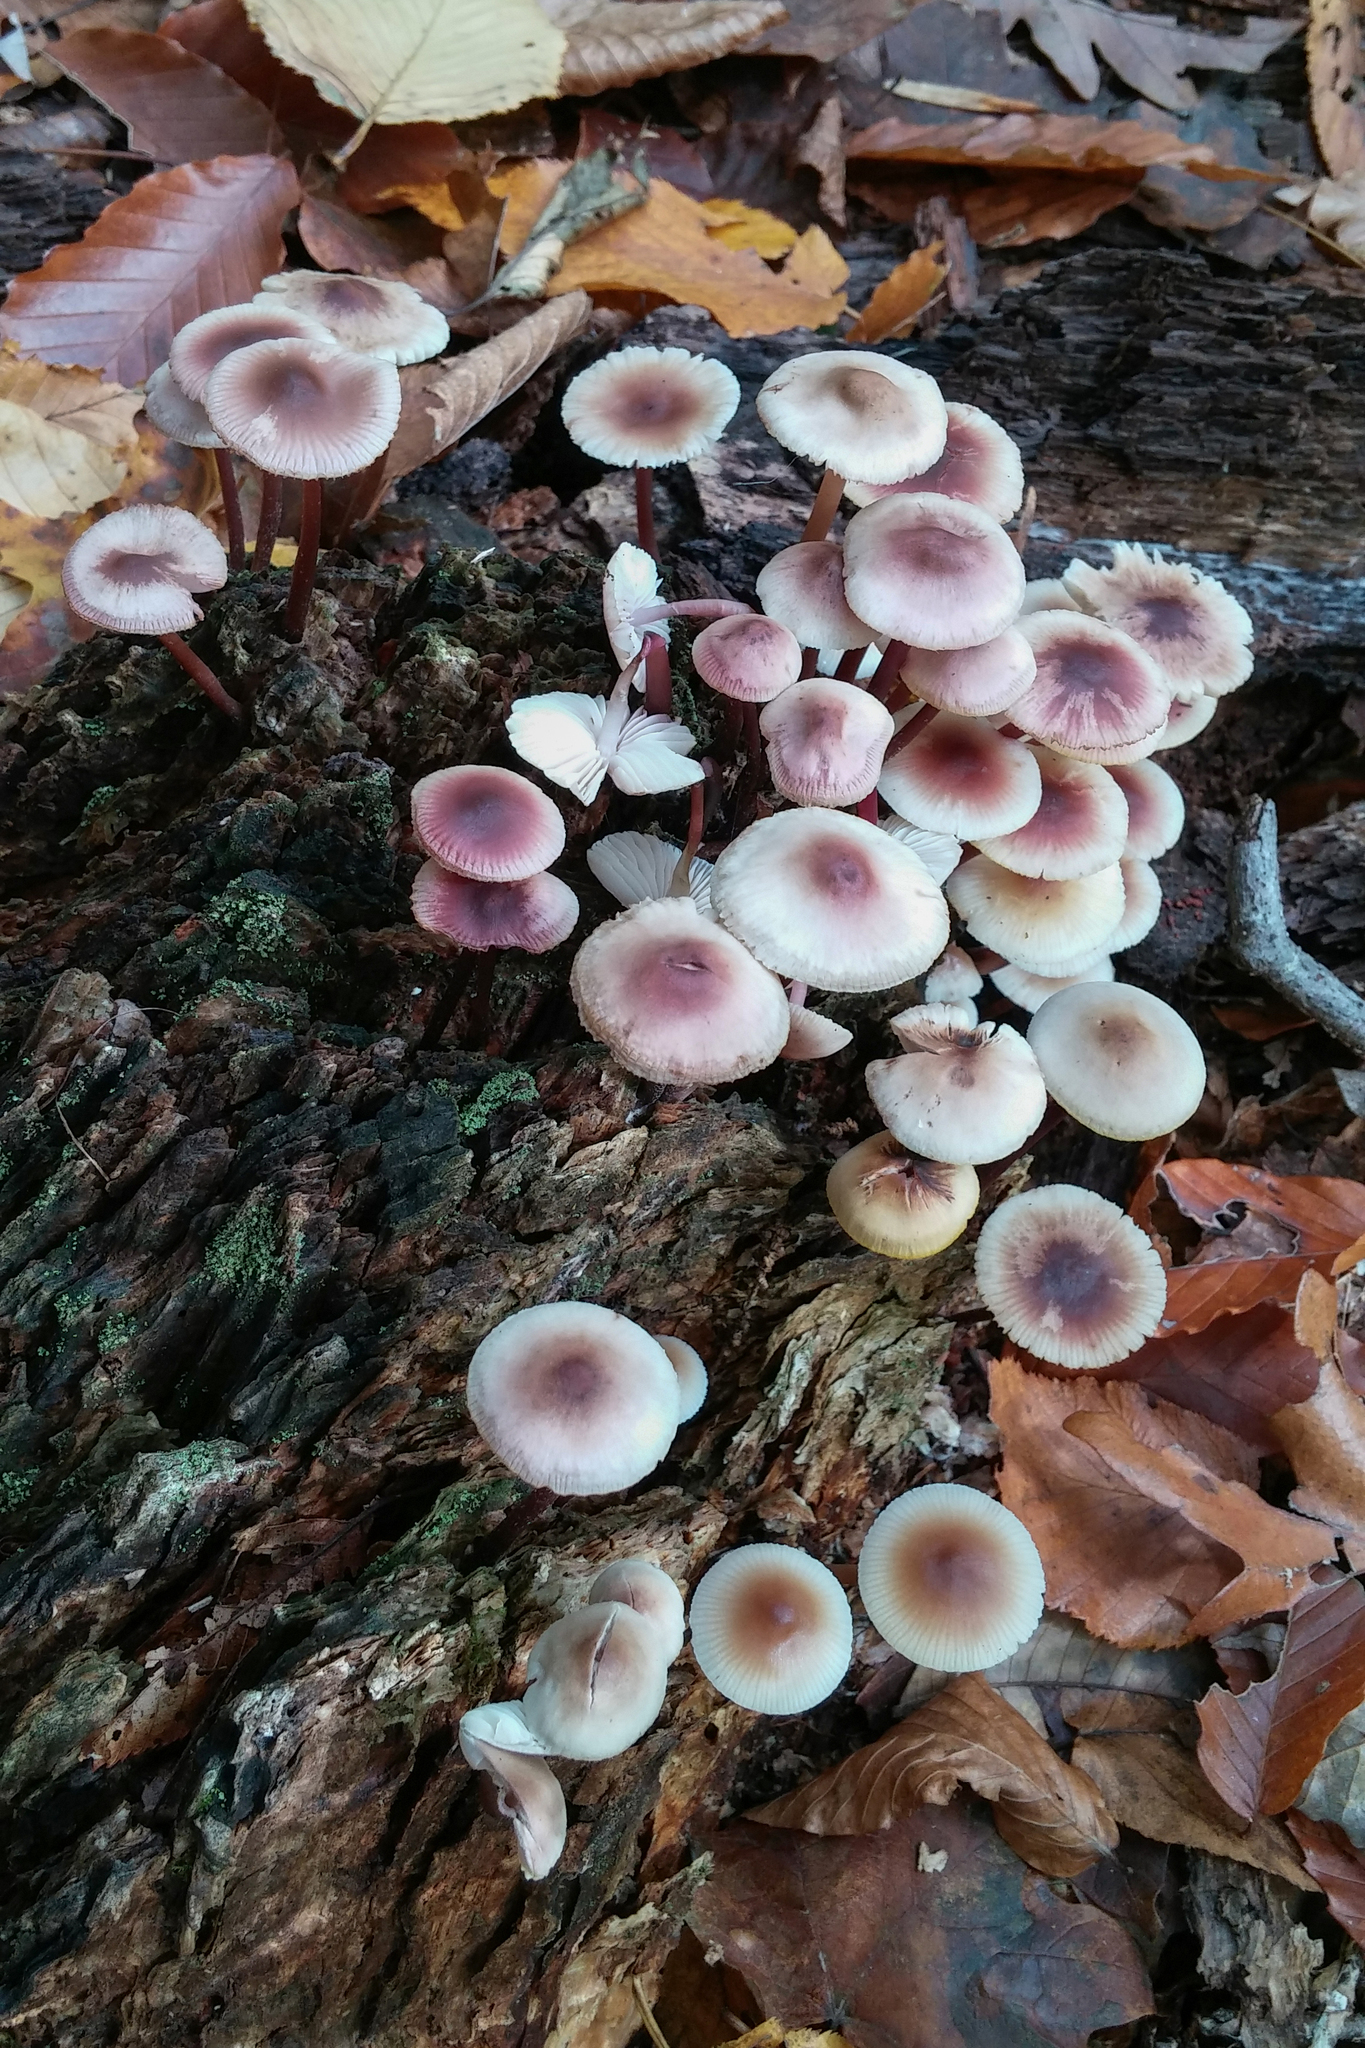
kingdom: Fungi
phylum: Basidiomycota
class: Agaricomycetes
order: Agaricales
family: Mycenaceae
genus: Mycena
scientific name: Mycena haematopus
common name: Burgundydrop bonnet
